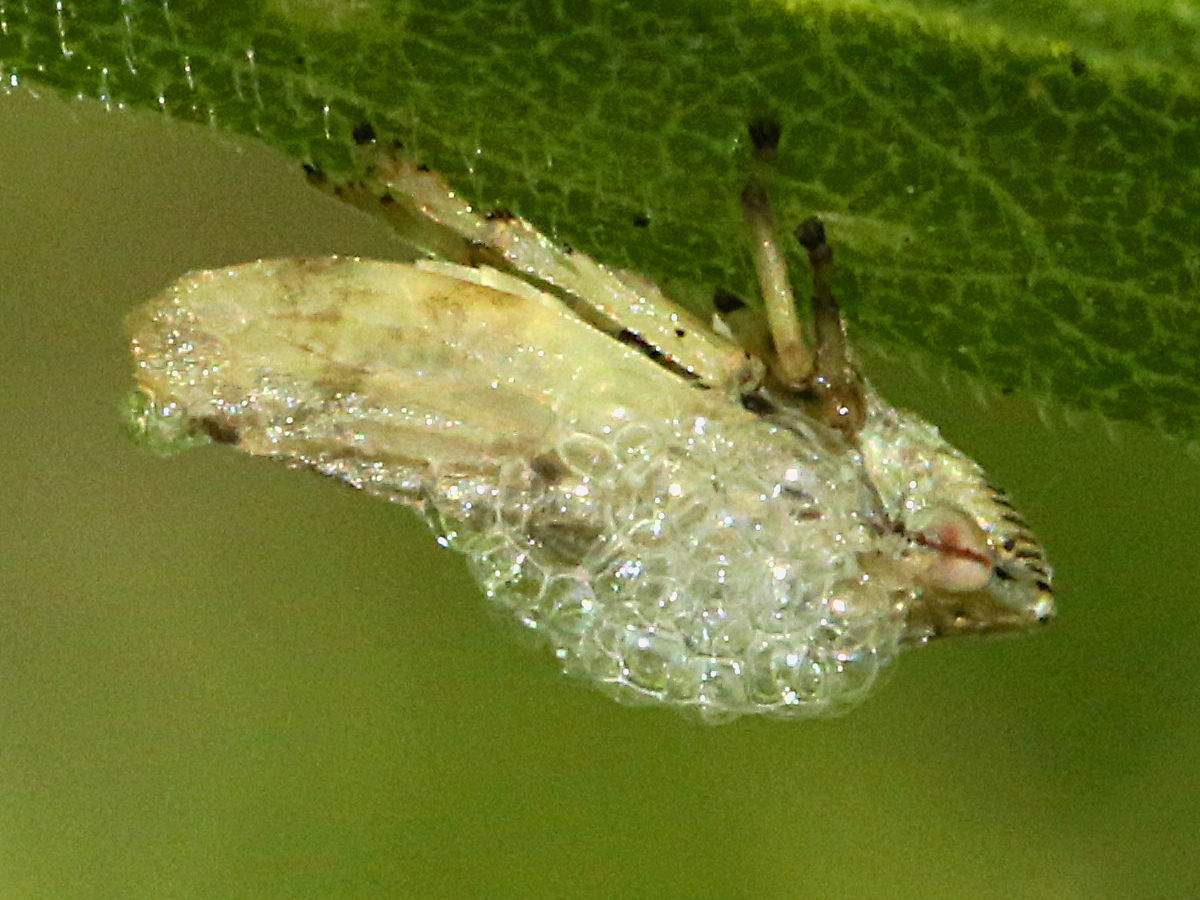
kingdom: Animalia
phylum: Arthropoda
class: Insecta
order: Hemiptera
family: Aphrophoridae
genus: Philaenus
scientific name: Philaenus spumarius
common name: Meadow spittlebug
